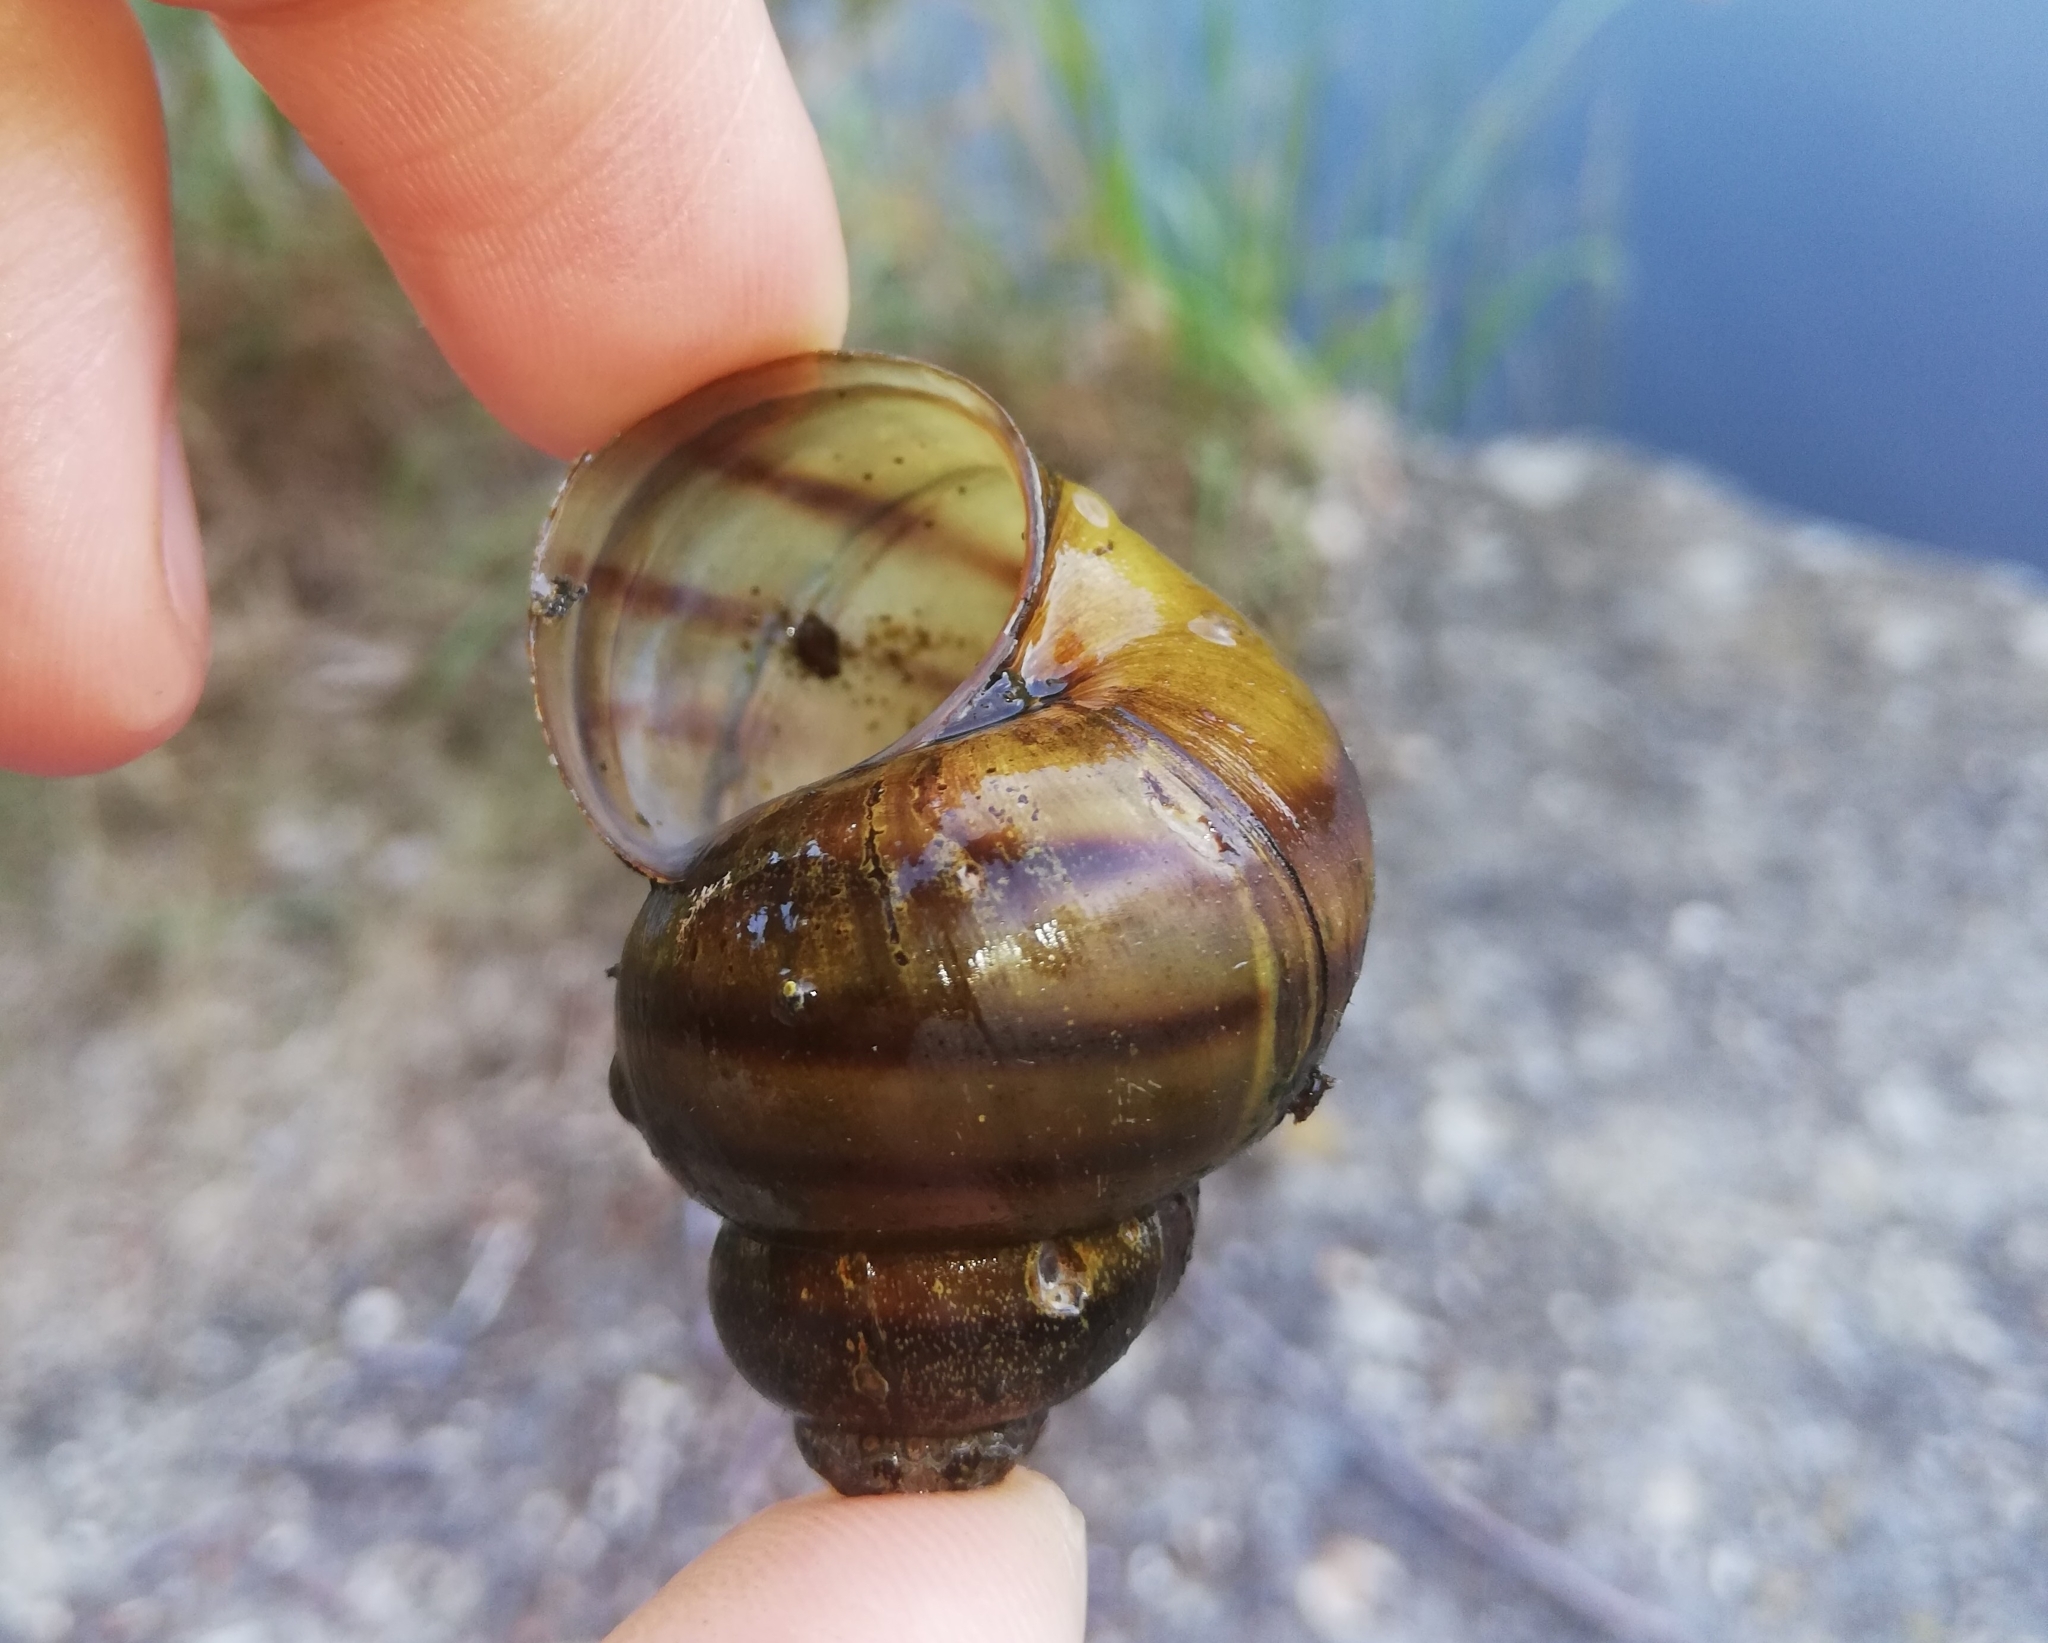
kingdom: Animalia
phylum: Mollusca
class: Gastropoda
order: Architaenioglossa
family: Viviparidae
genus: Viviparus
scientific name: Viviparus contectus
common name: Lister's river snail
